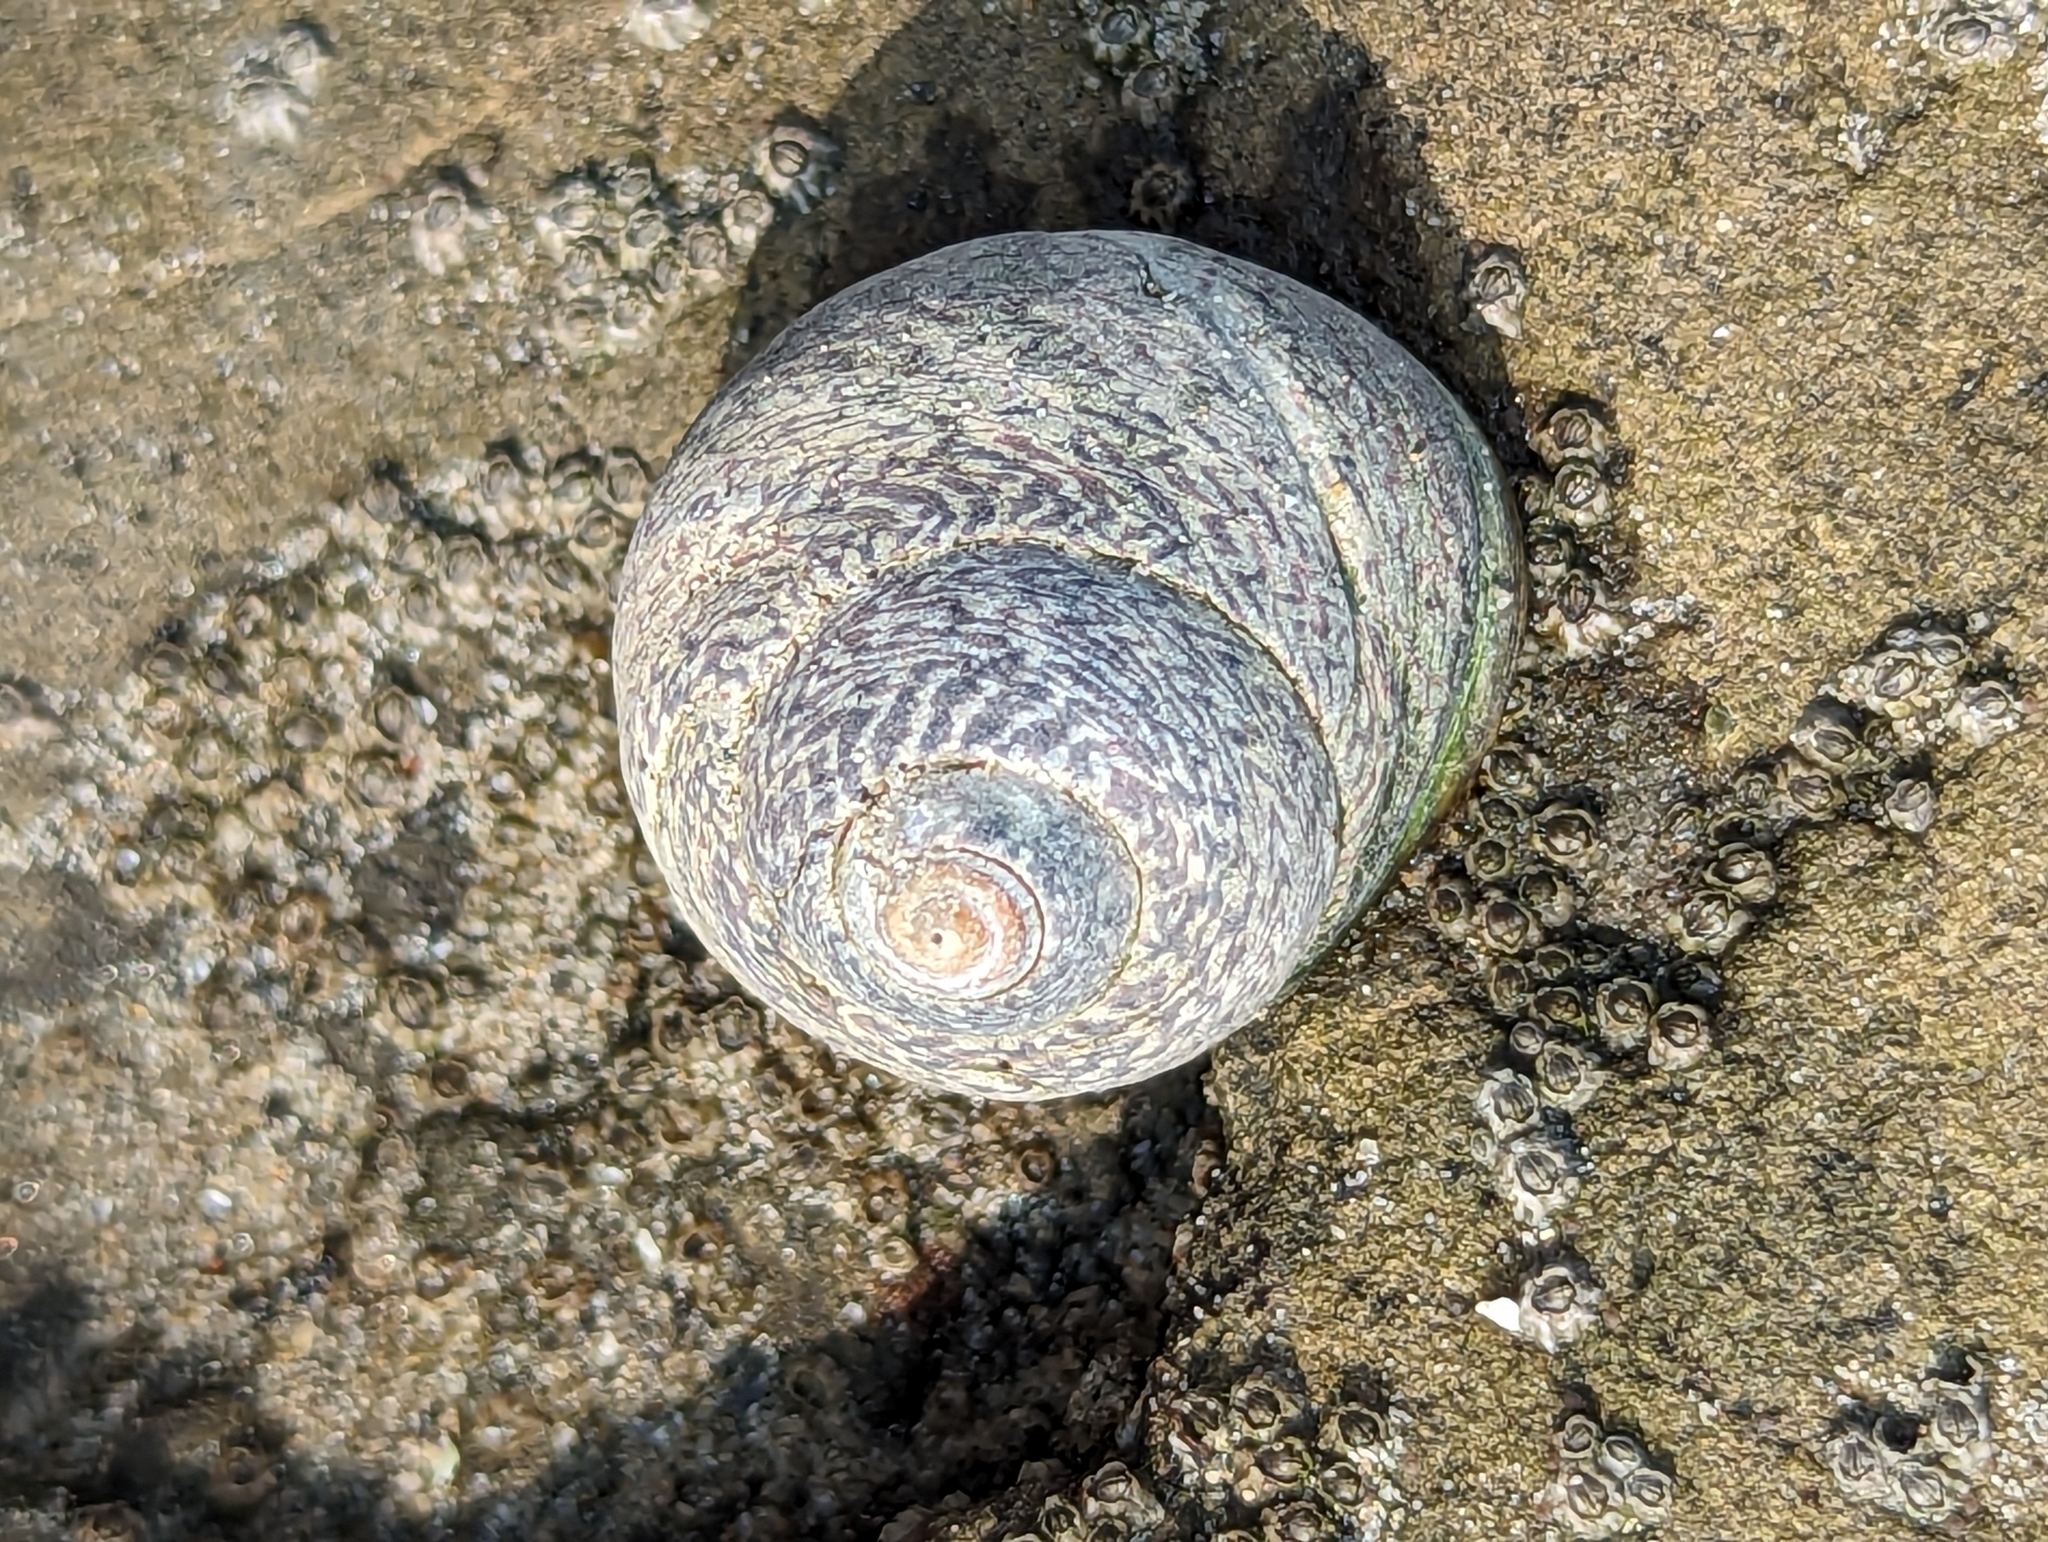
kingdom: Animalia
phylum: Mollusca
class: Gastropoda
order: Trochida
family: Trochidae
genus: Phorcus
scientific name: Phorcus lineatus
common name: Toothed top shell
